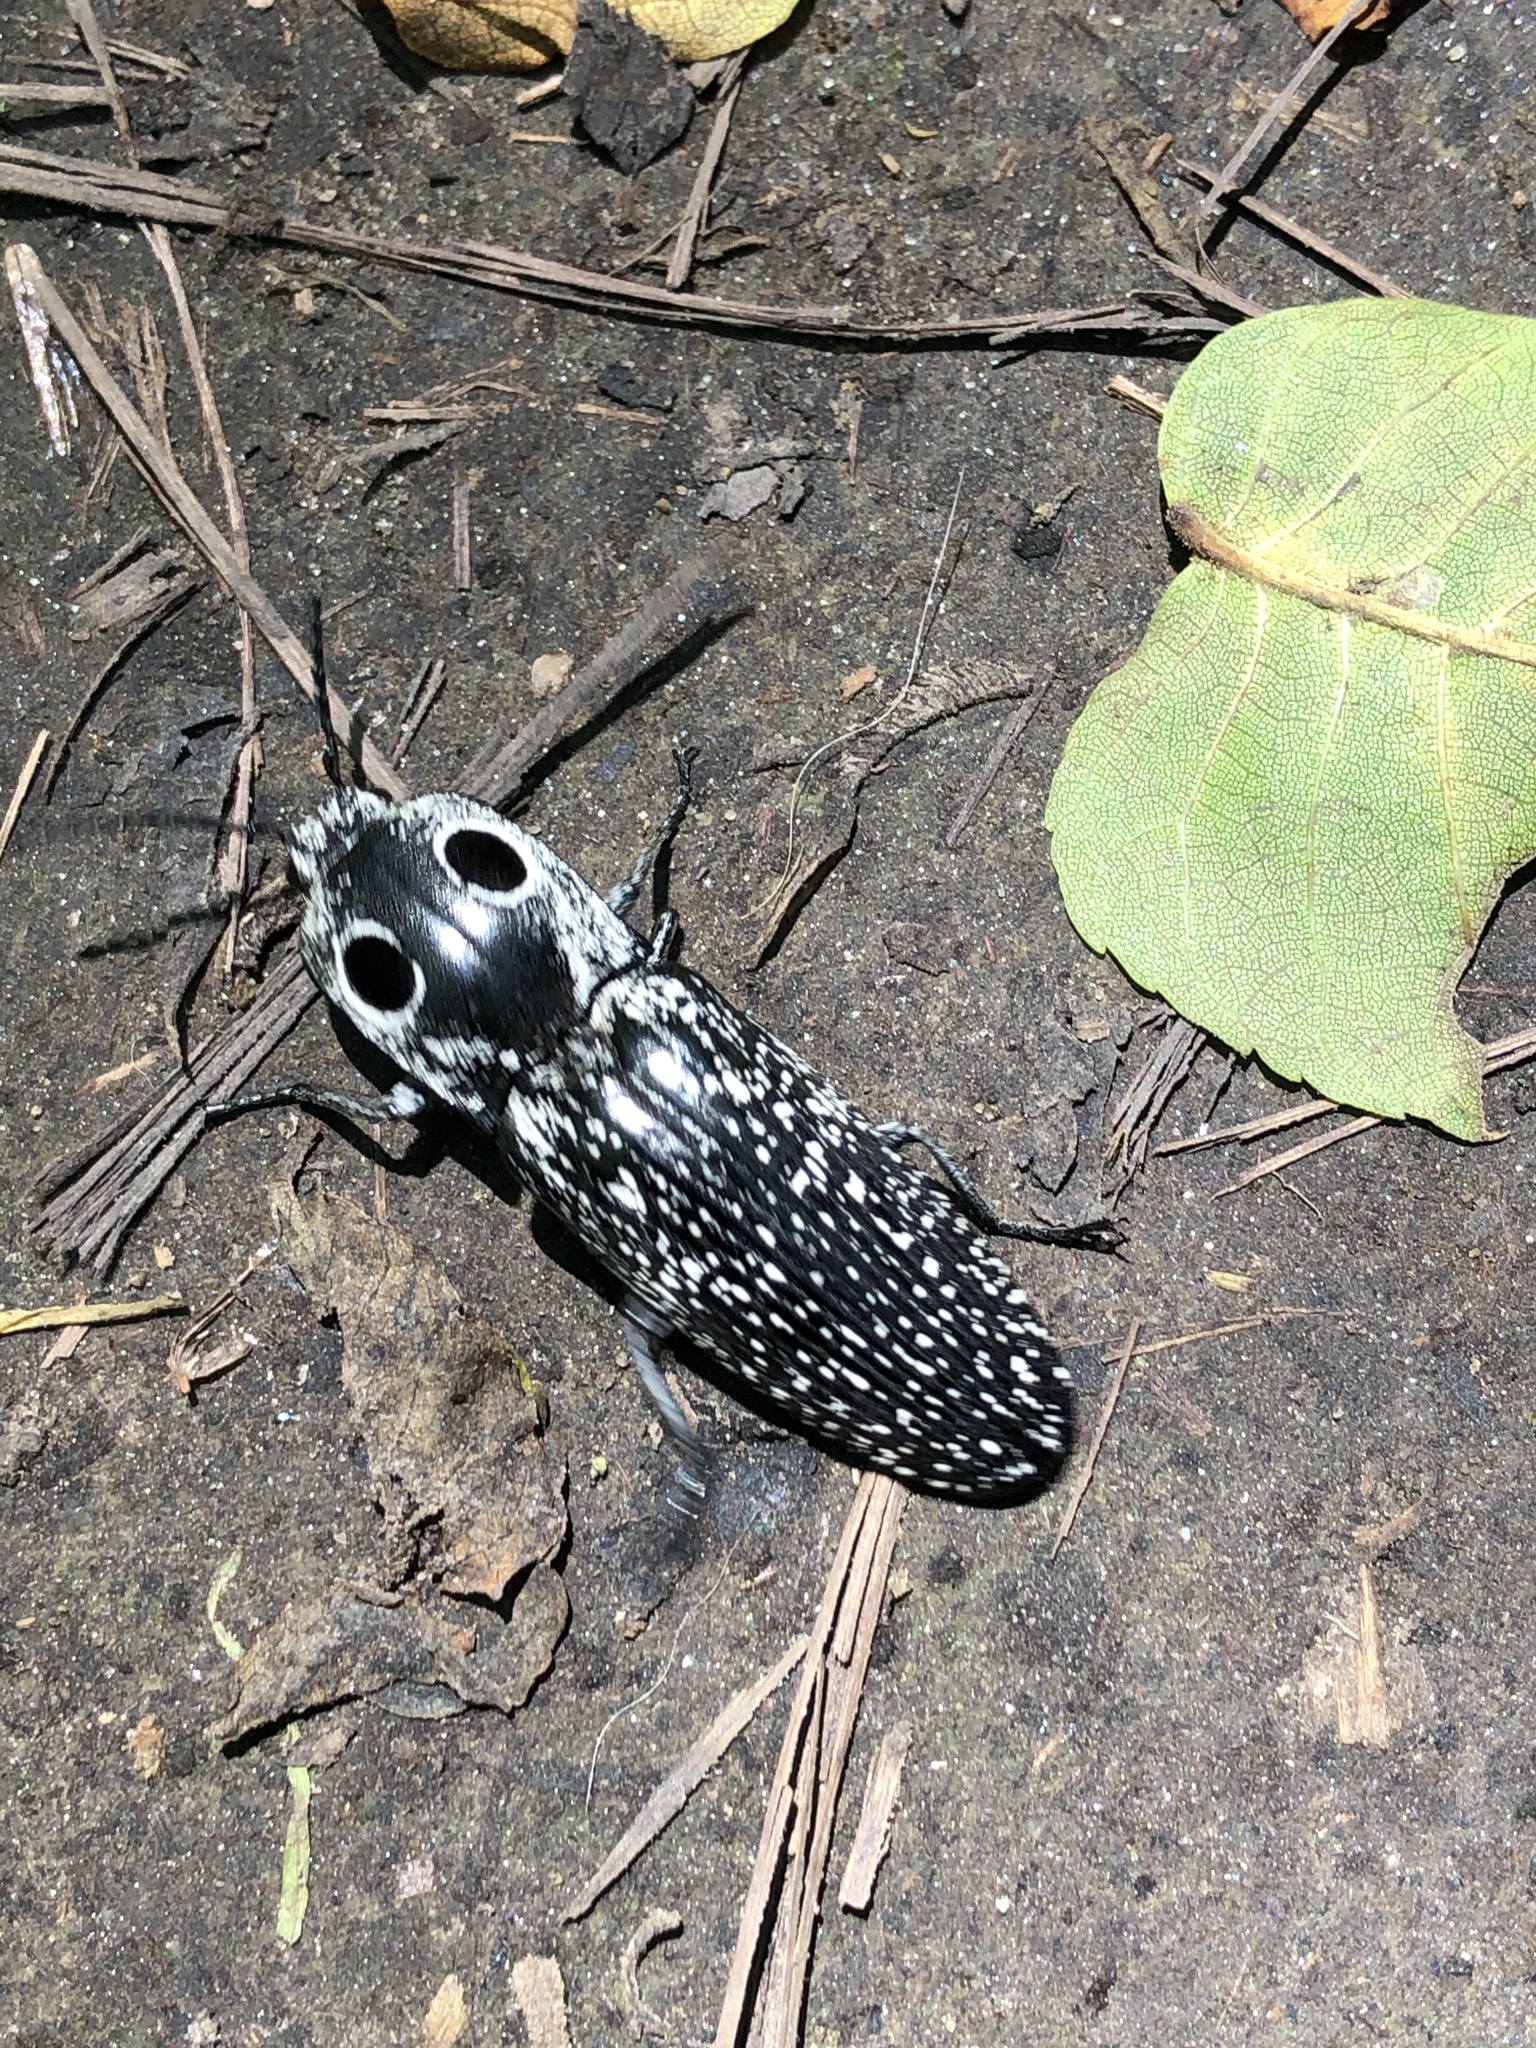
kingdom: Animalia
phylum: Arthropoda
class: Insecta
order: Coleoptera
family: Elateridae
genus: Alaus
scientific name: Alaus oculatus
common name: Eastern eyed click beetle
